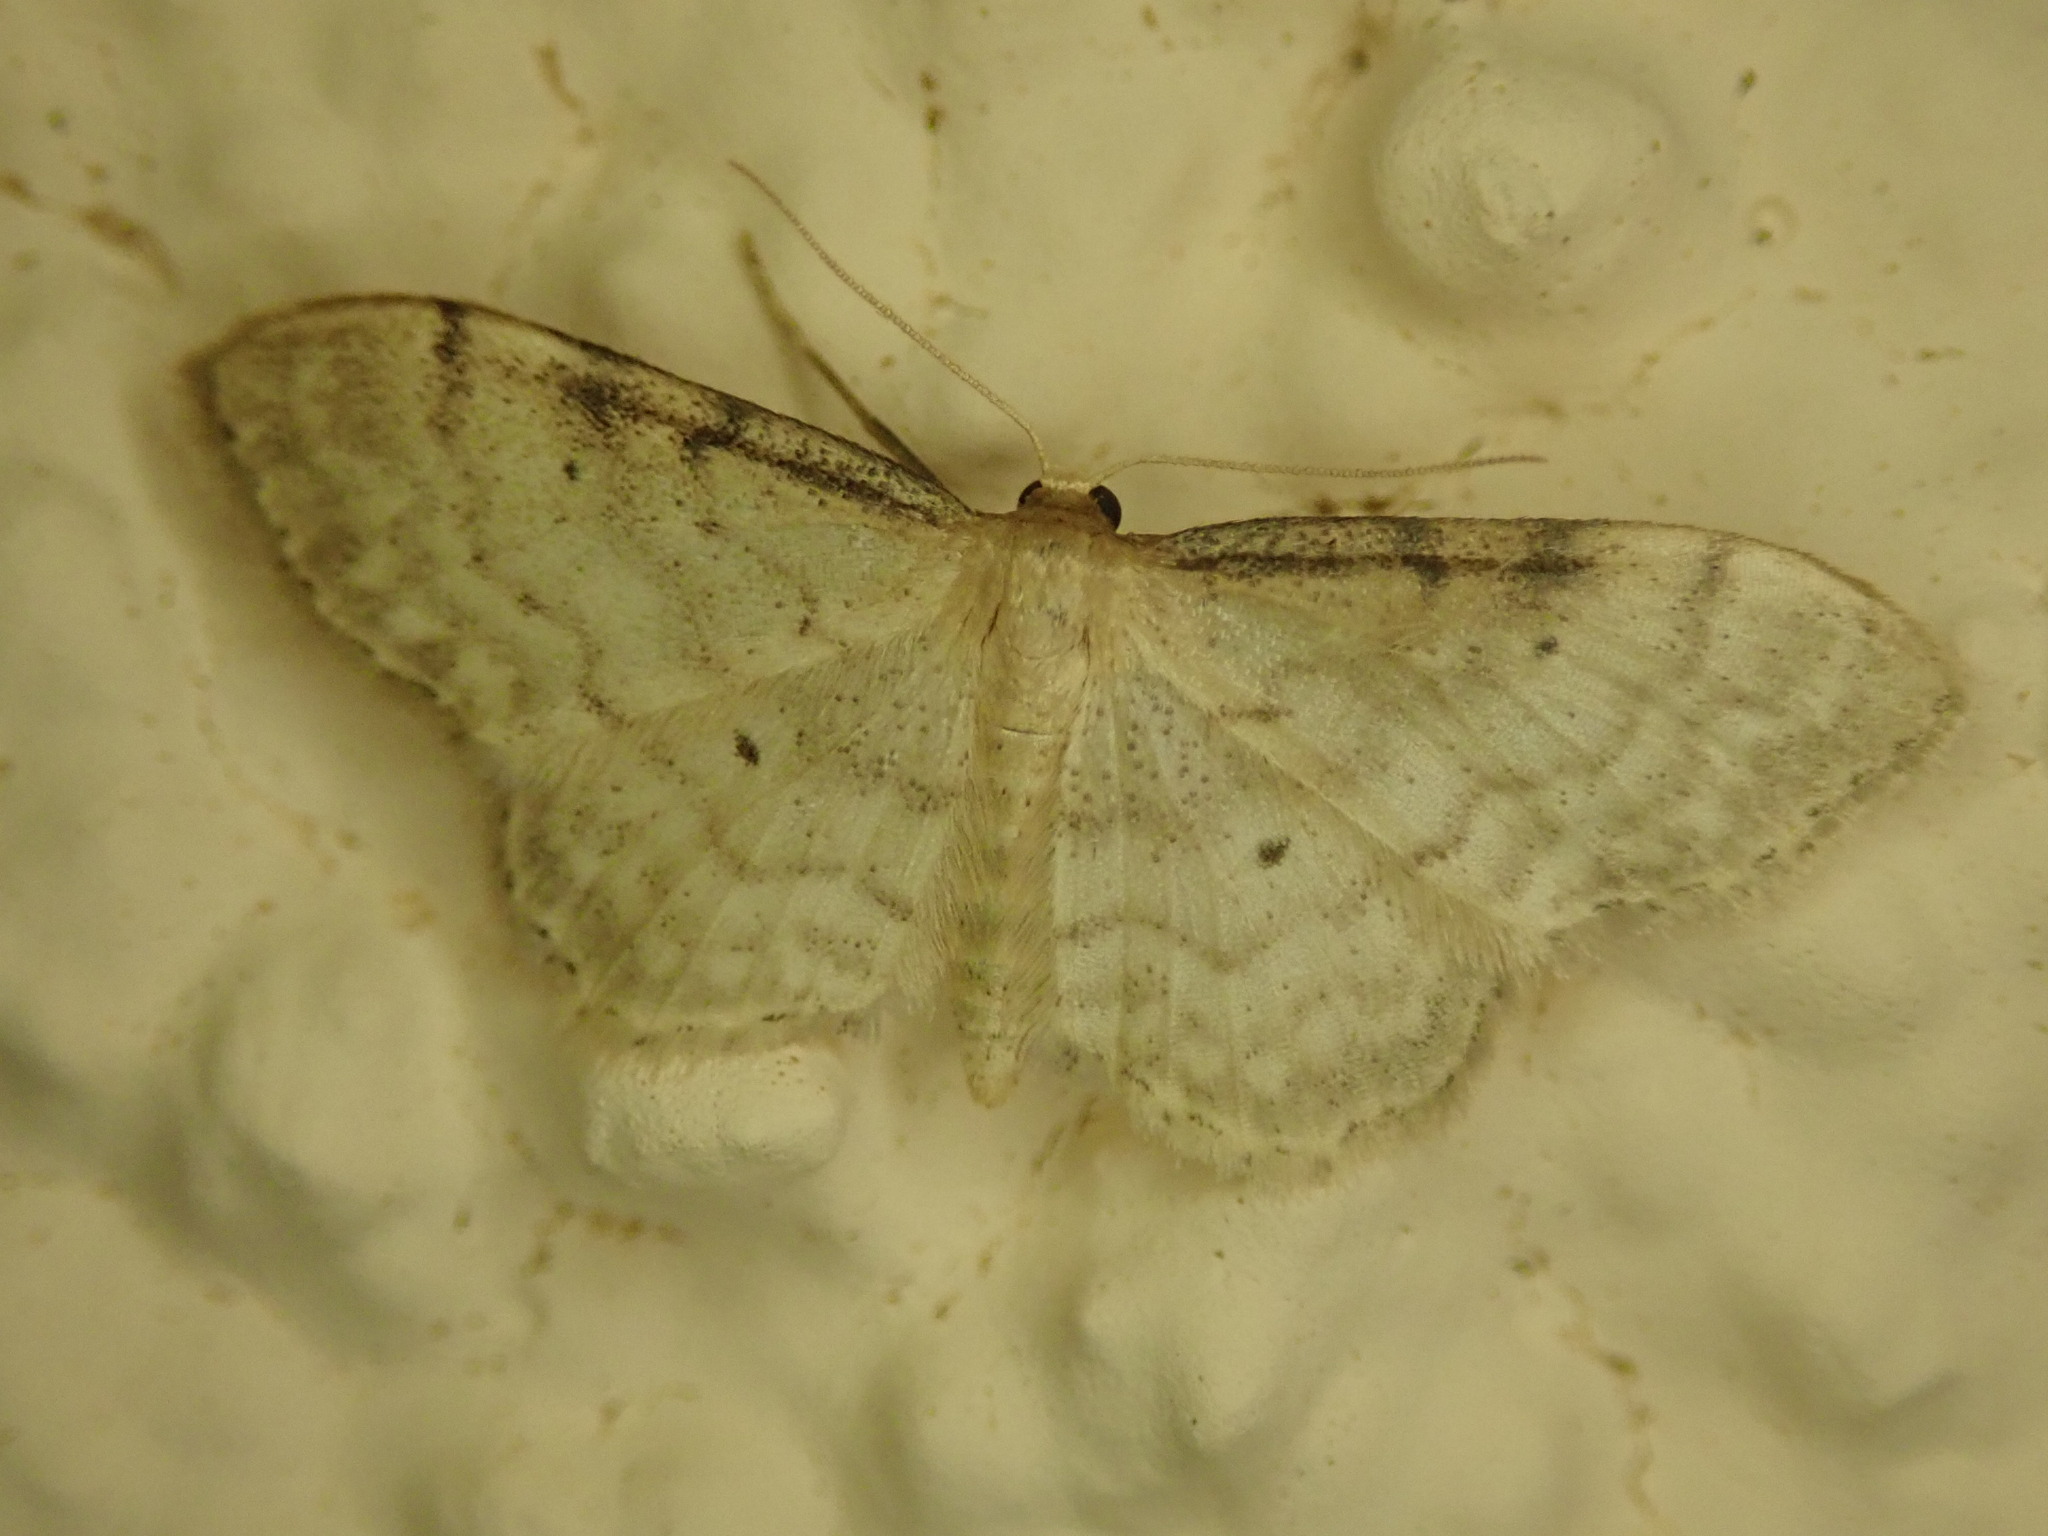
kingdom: Animalia
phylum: Arthropoda
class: Insecta
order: Lepidoptera
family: Geometridae
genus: Idaea
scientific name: Idaea fuscovenosa
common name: Dwarf cream wave
